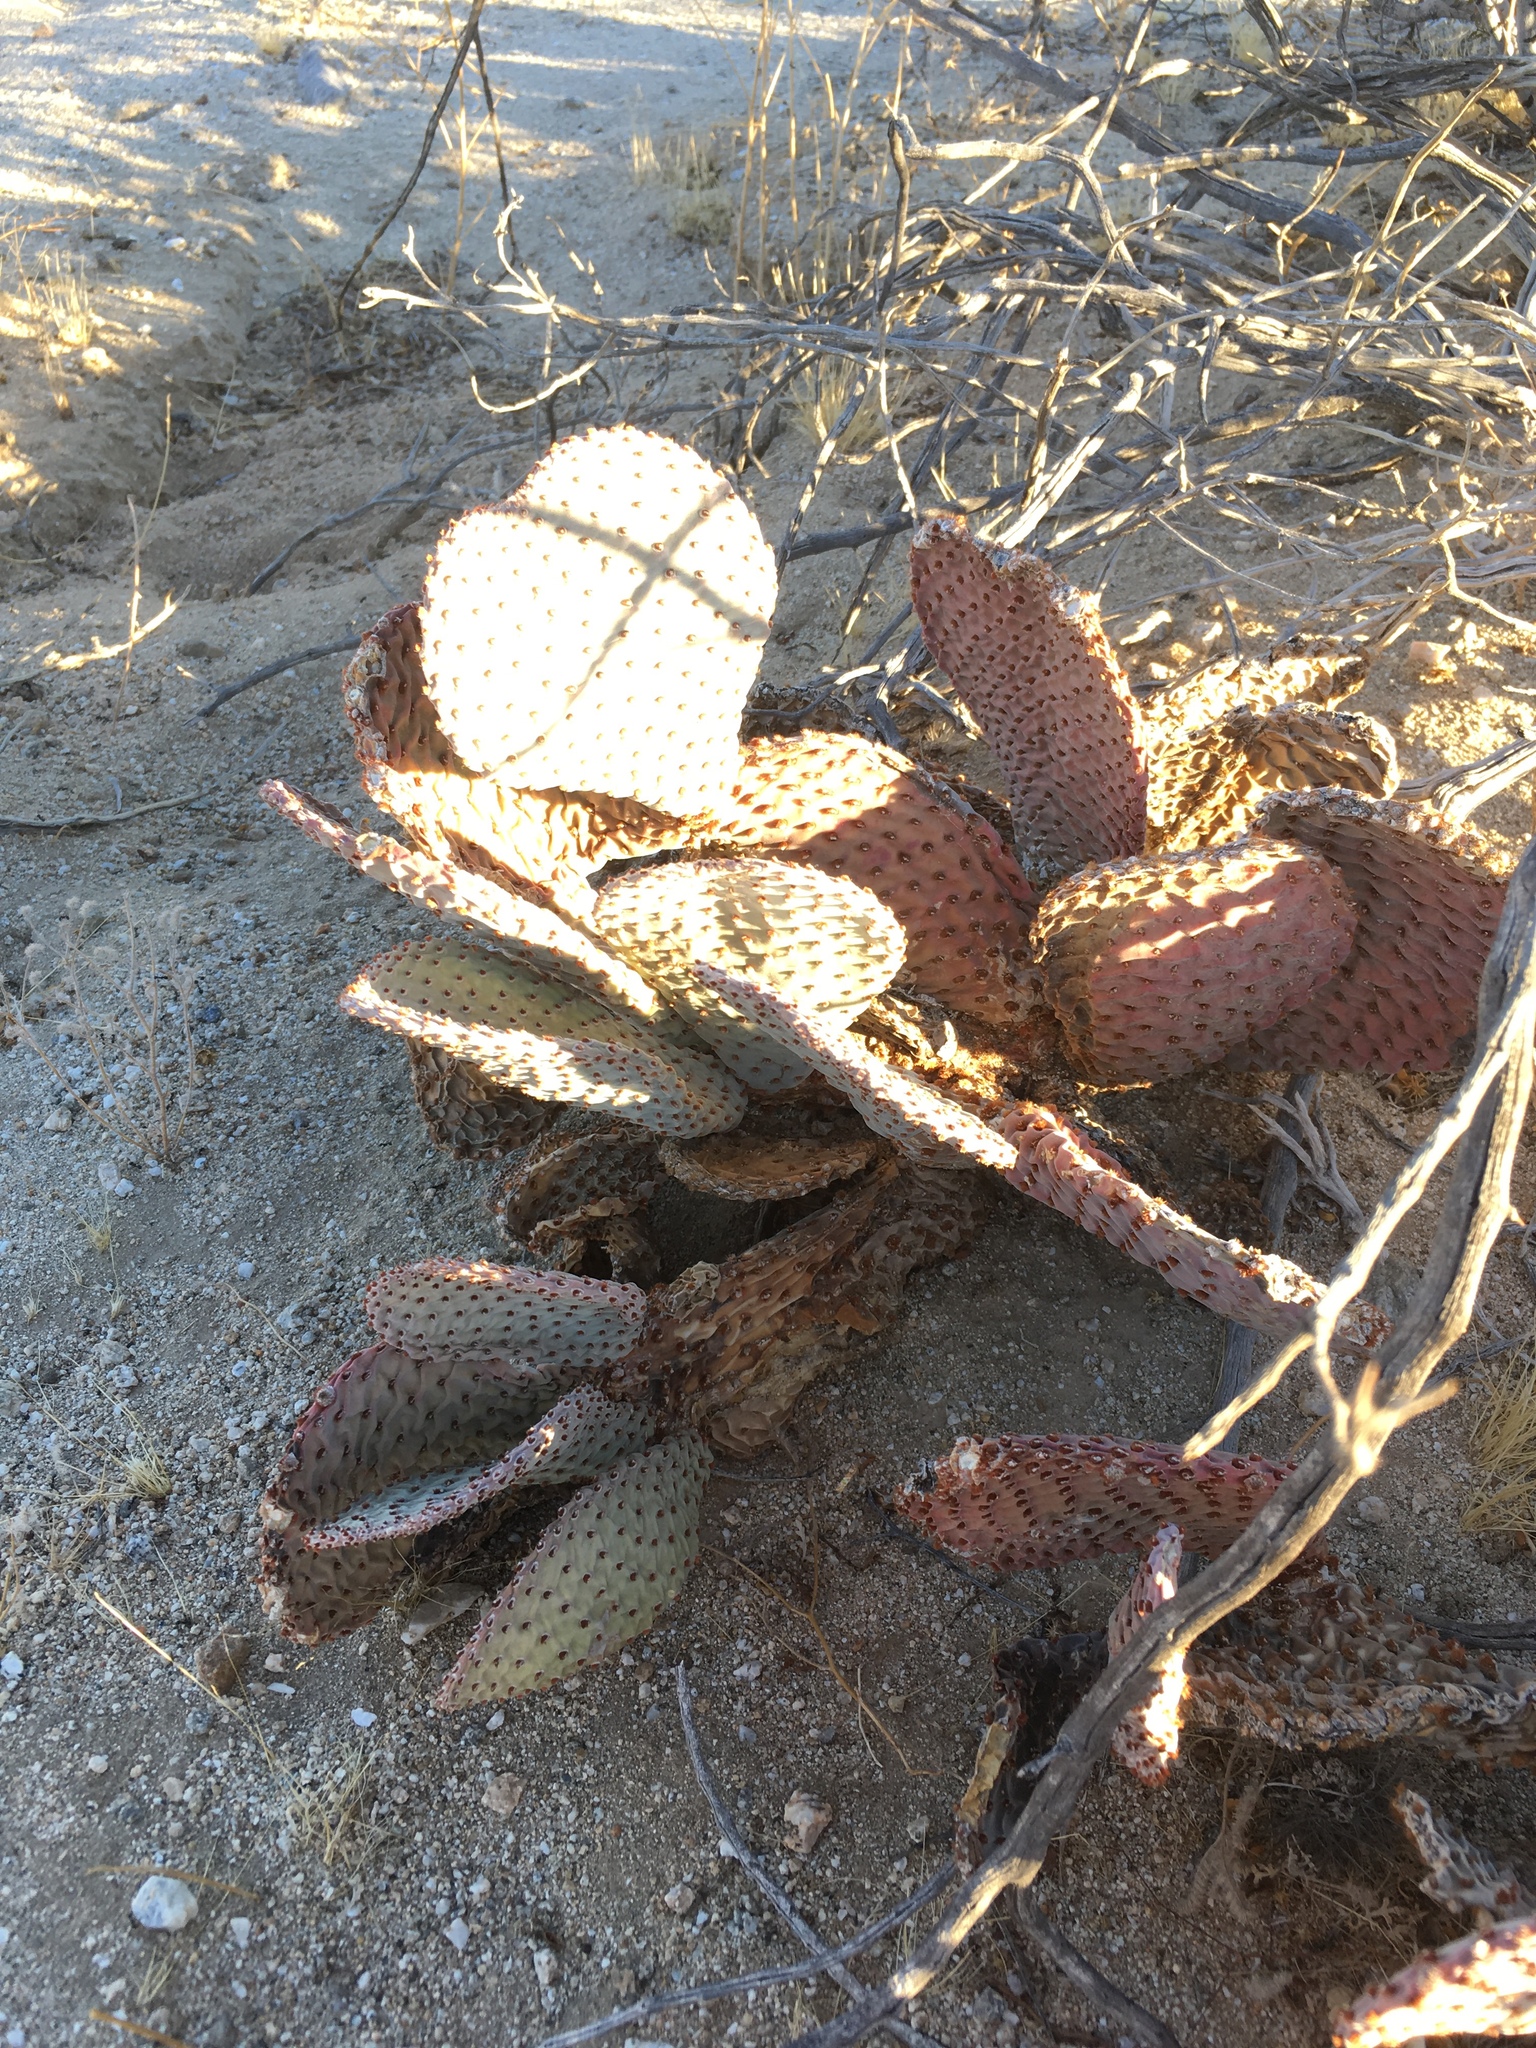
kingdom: Plantae
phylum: Tracheophyta
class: Magnoliopsida
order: Caryophyllales
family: Cactaceae
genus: Opuntia
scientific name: Opuntia basilaris
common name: Beavertail prickly-pear
